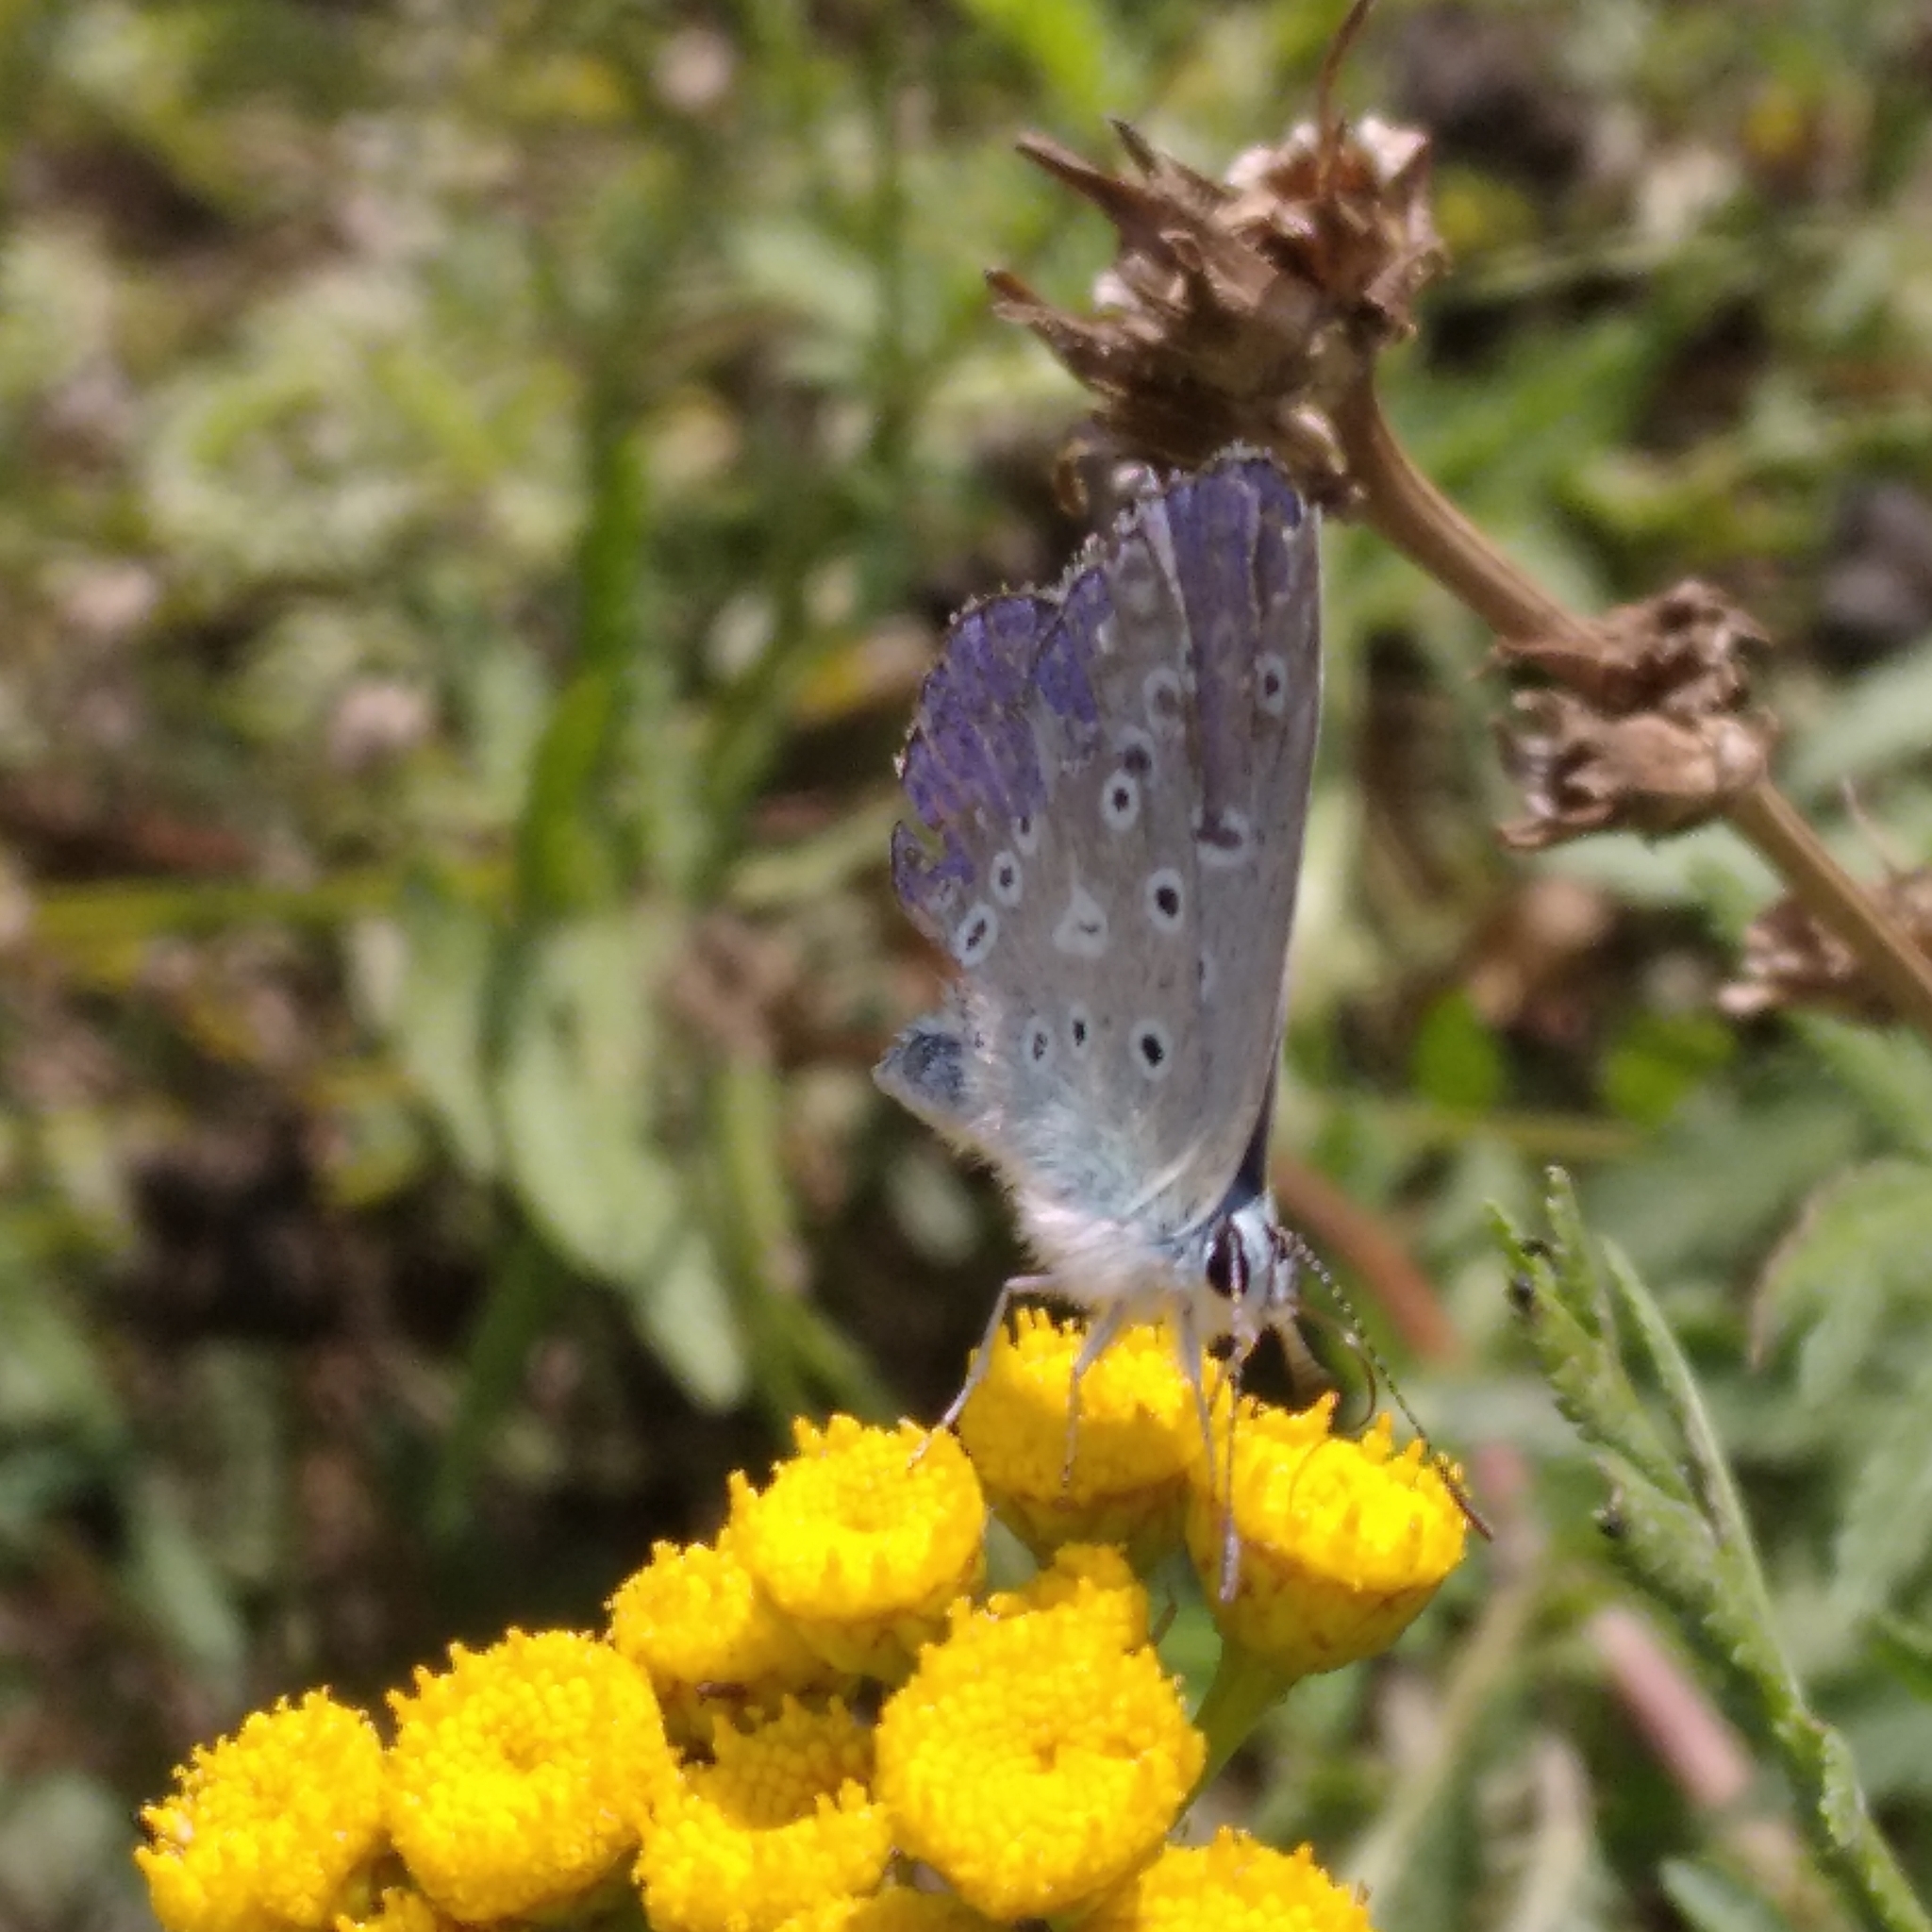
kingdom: Animalia
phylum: Arthropoda
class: Insecta
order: Lepidoptera
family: Lycaenidae
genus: Polyommatus
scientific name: Polyommatus icarus
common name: Common blue
